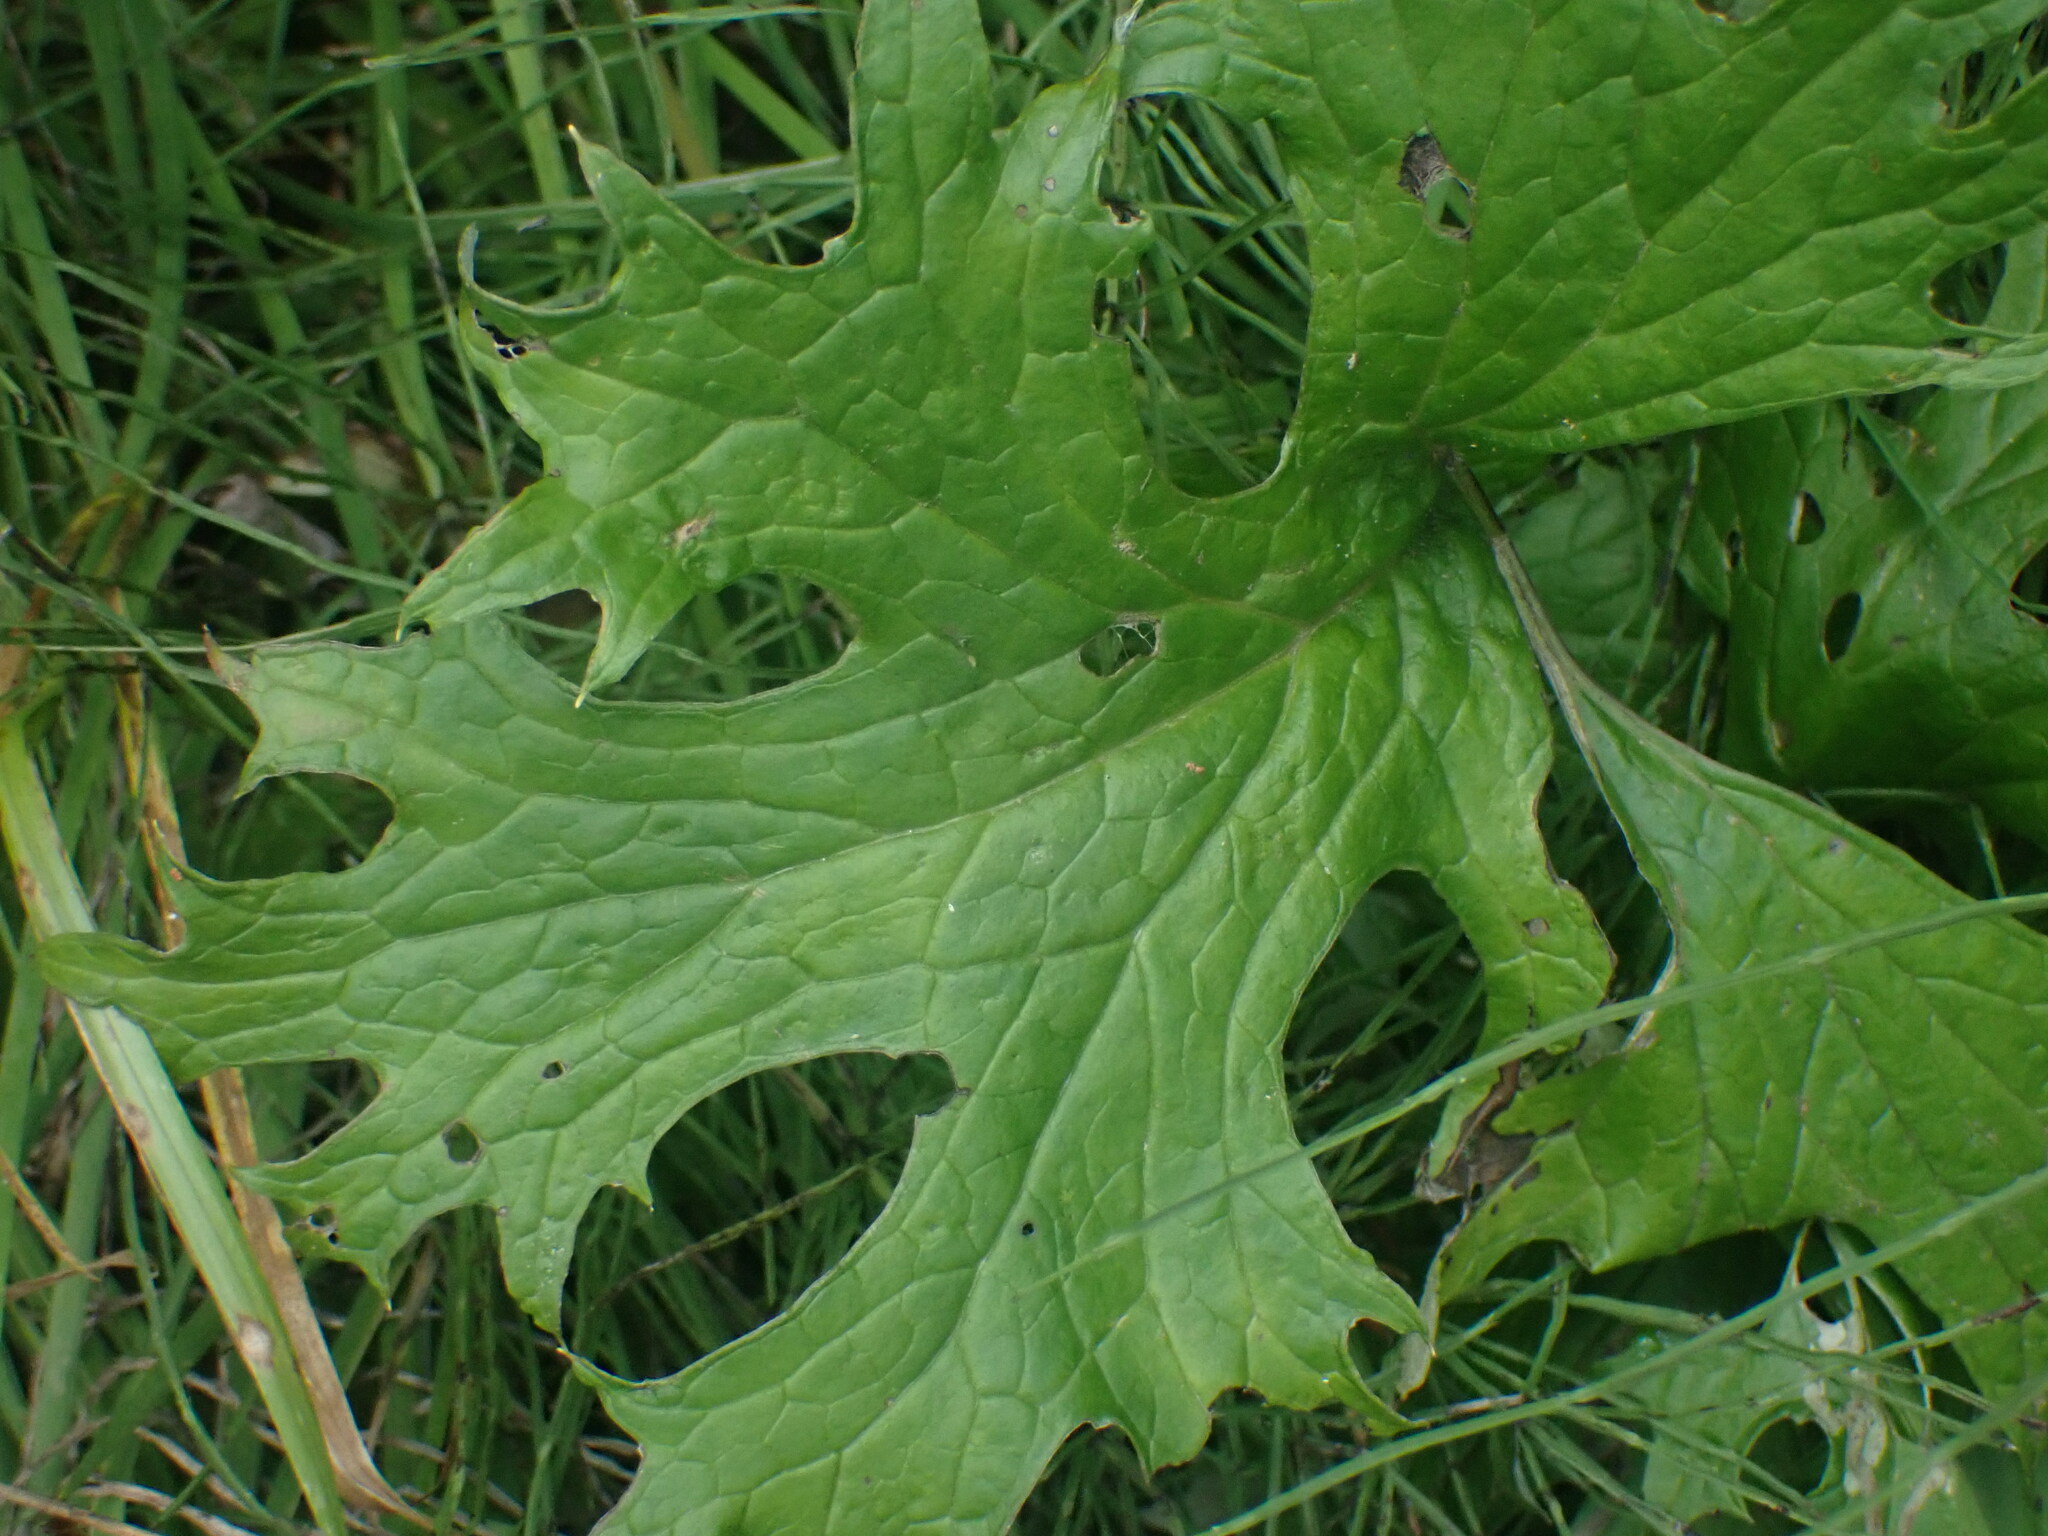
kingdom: Plantae
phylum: Tracheophyta
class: Magnoliopsida
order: Asterales
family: Asteraceae
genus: Petasites
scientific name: Petasites frigidus
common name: Arctic butterbur
